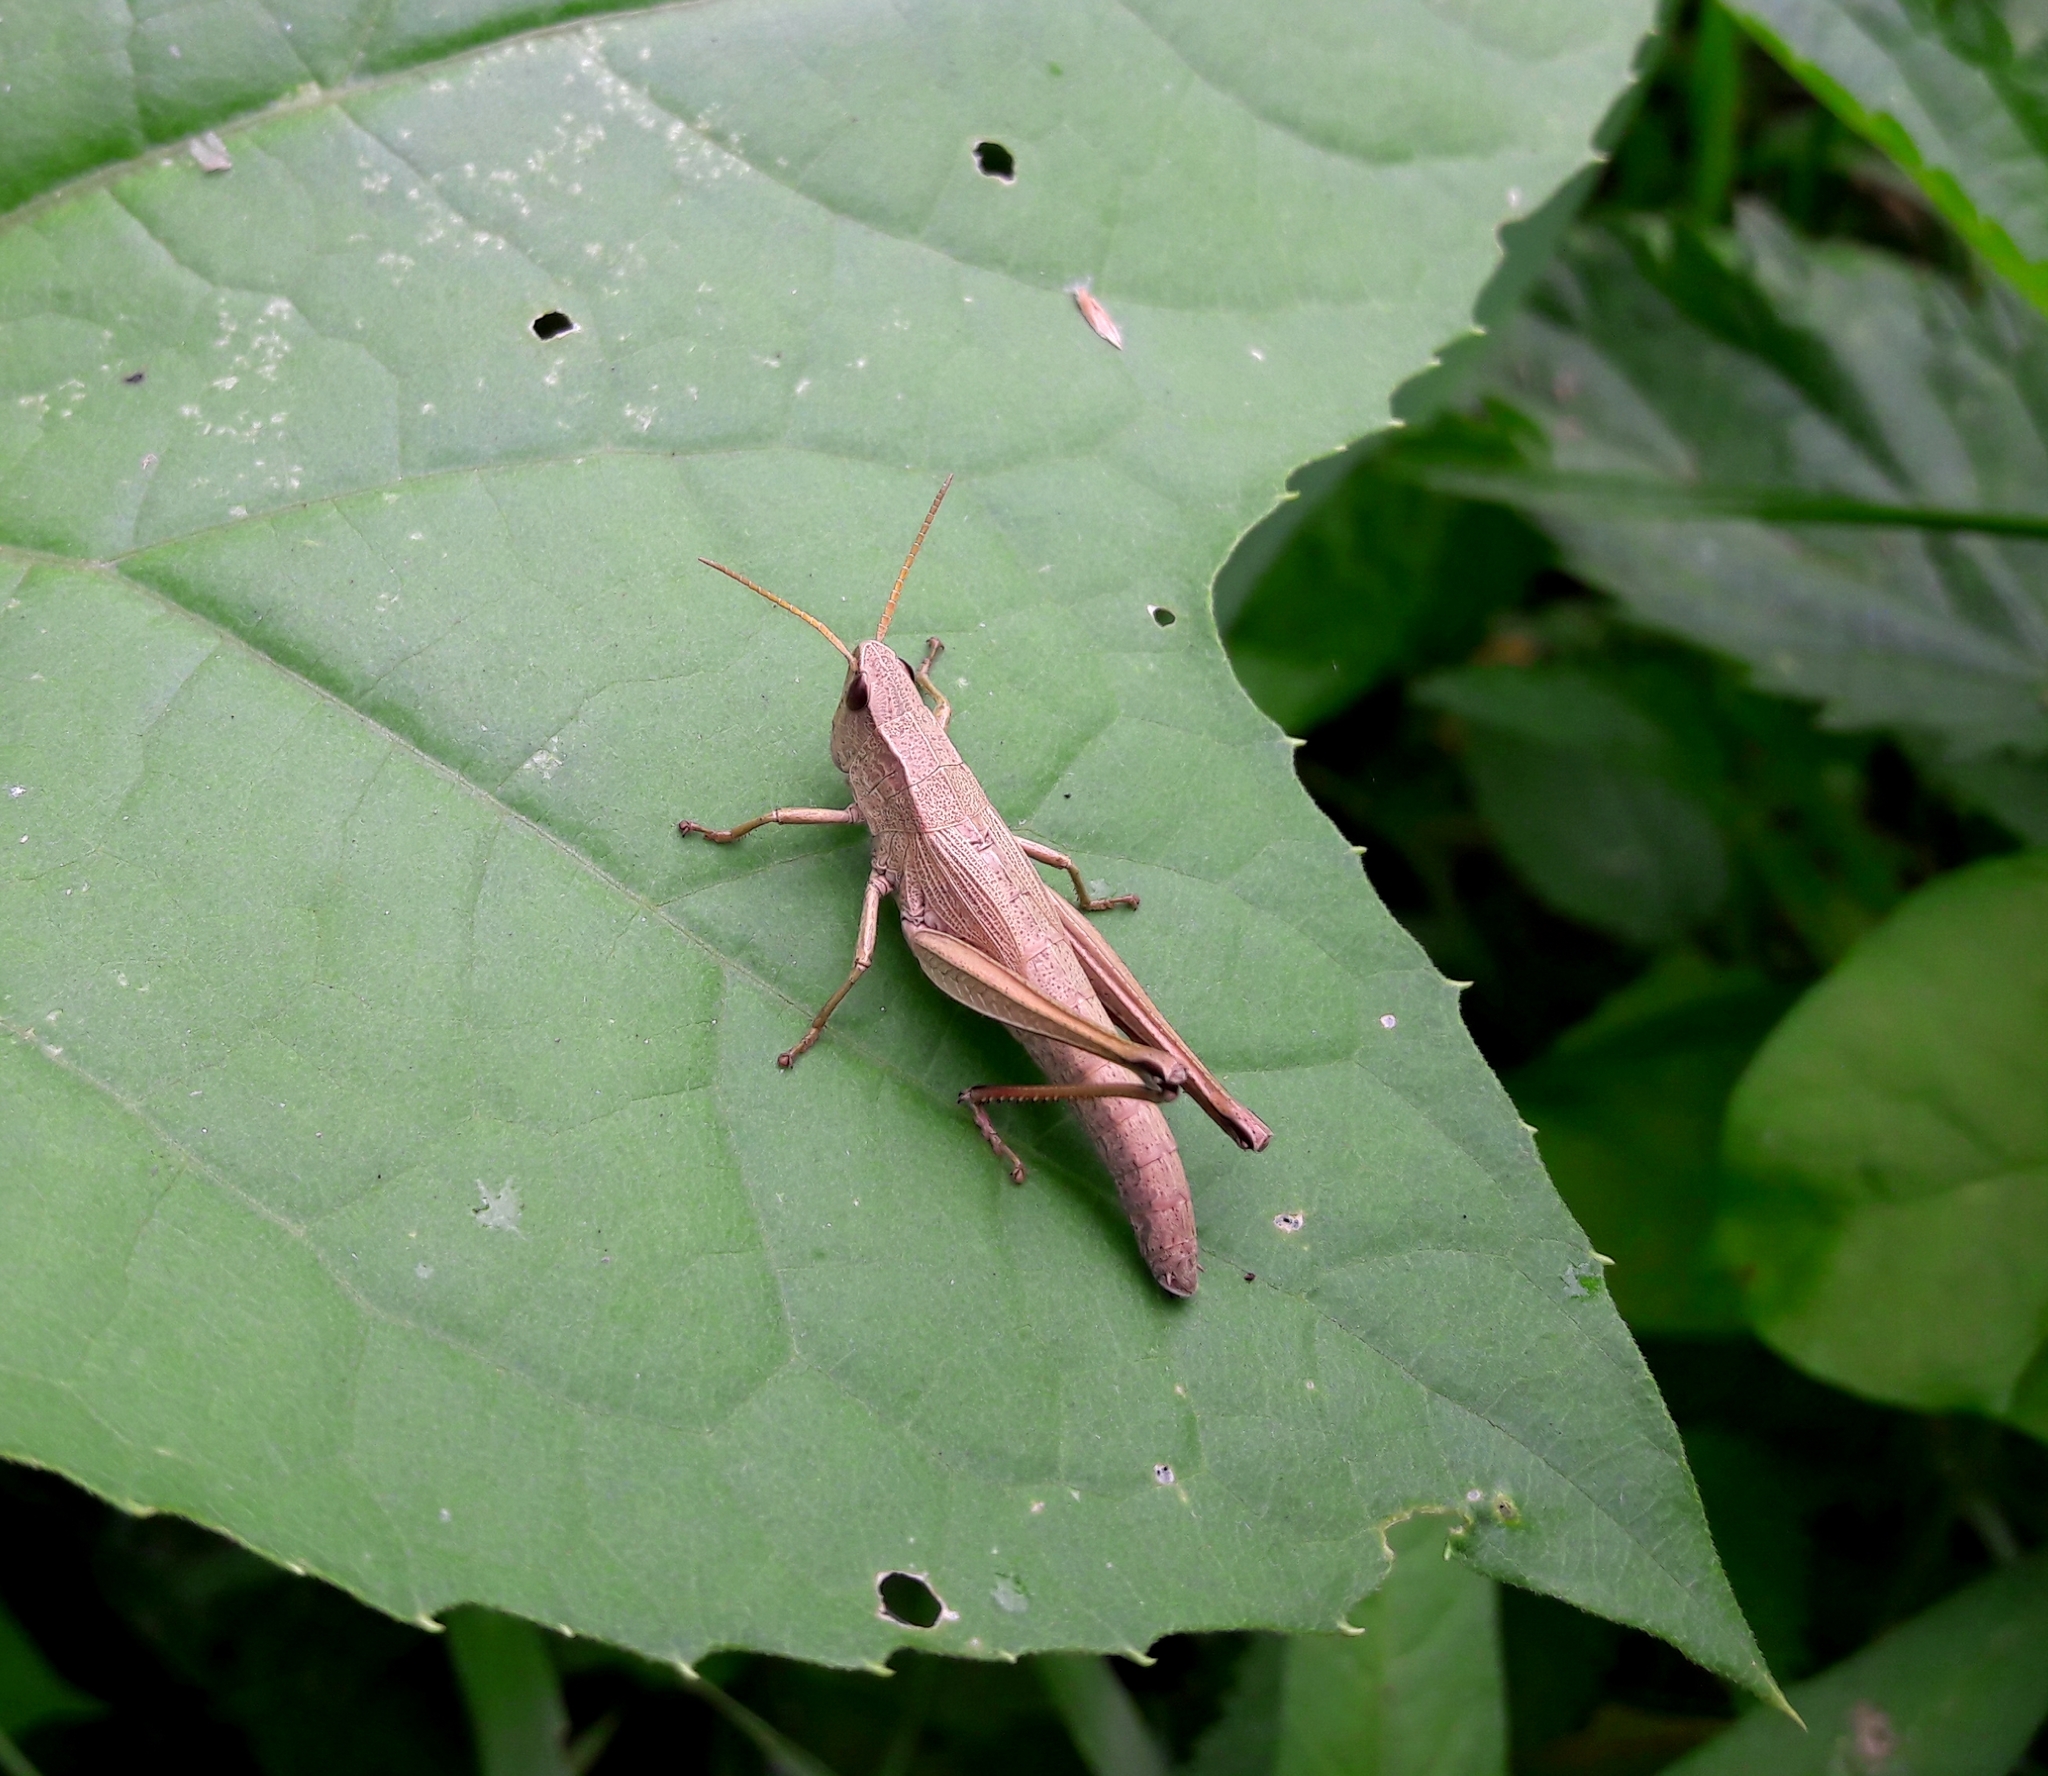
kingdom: Animalia
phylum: Arthropoda
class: Insecta
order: Orthoptera
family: Acrididae
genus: Chrysochraon
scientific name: Chrysochraon dispar
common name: Large gold grasshopper
